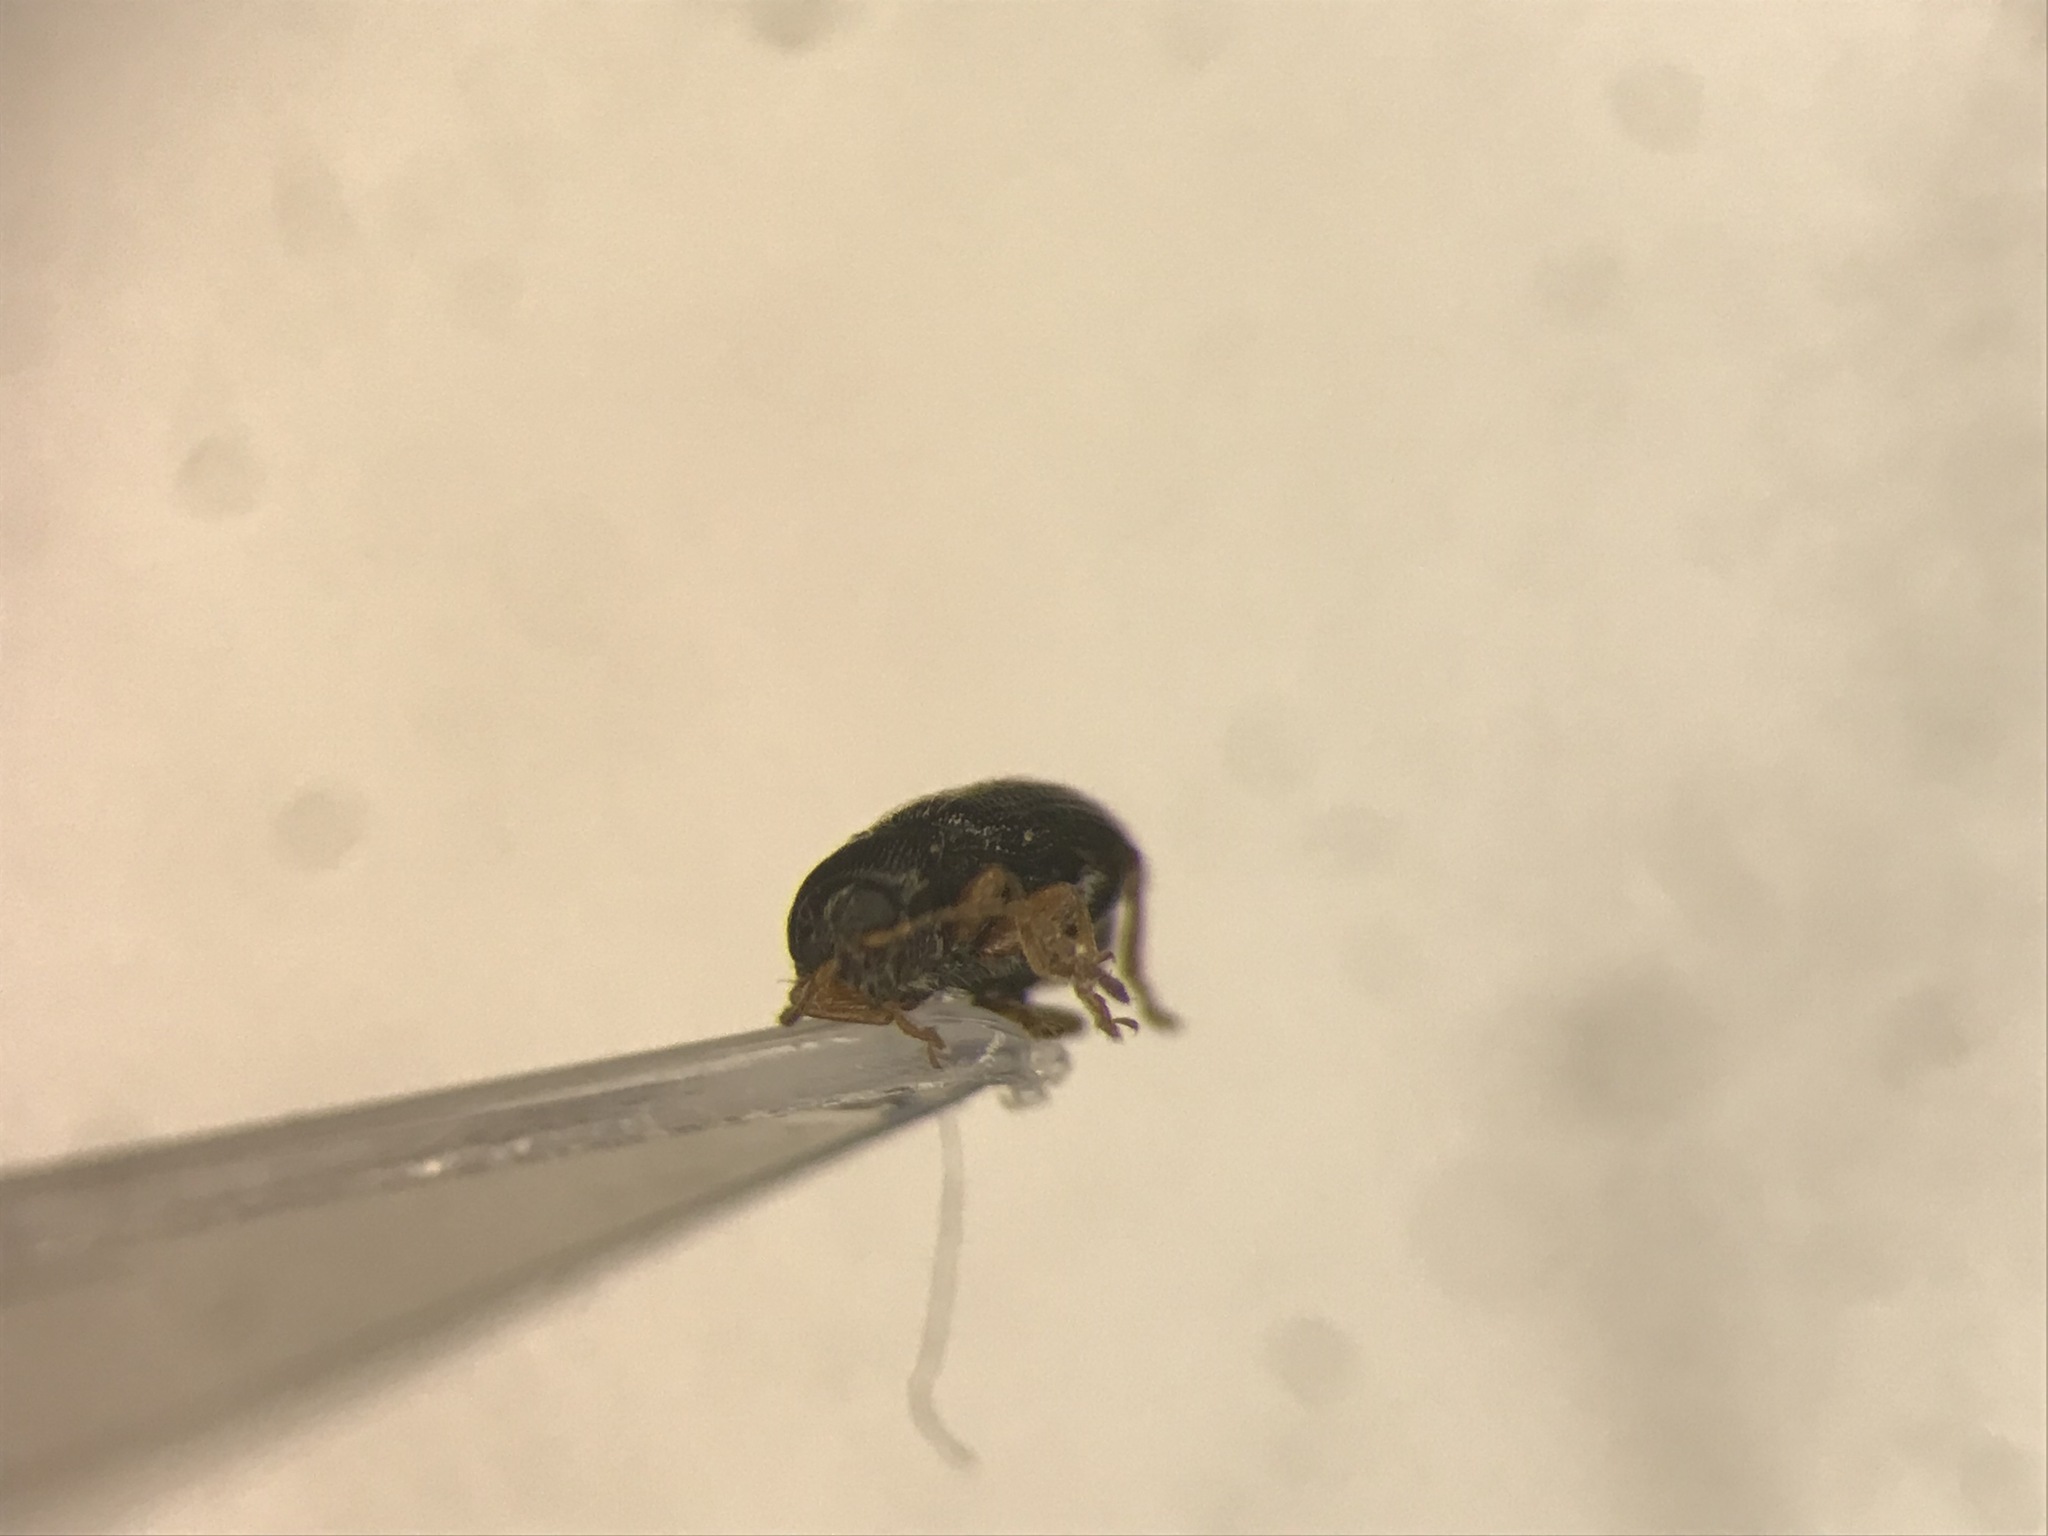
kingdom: Animalia
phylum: Arthropoda
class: Insecta
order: Coleoptera
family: Chrysomelidae
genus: Epitrix
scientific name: Epitrix pubescens
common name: Flea beetle
